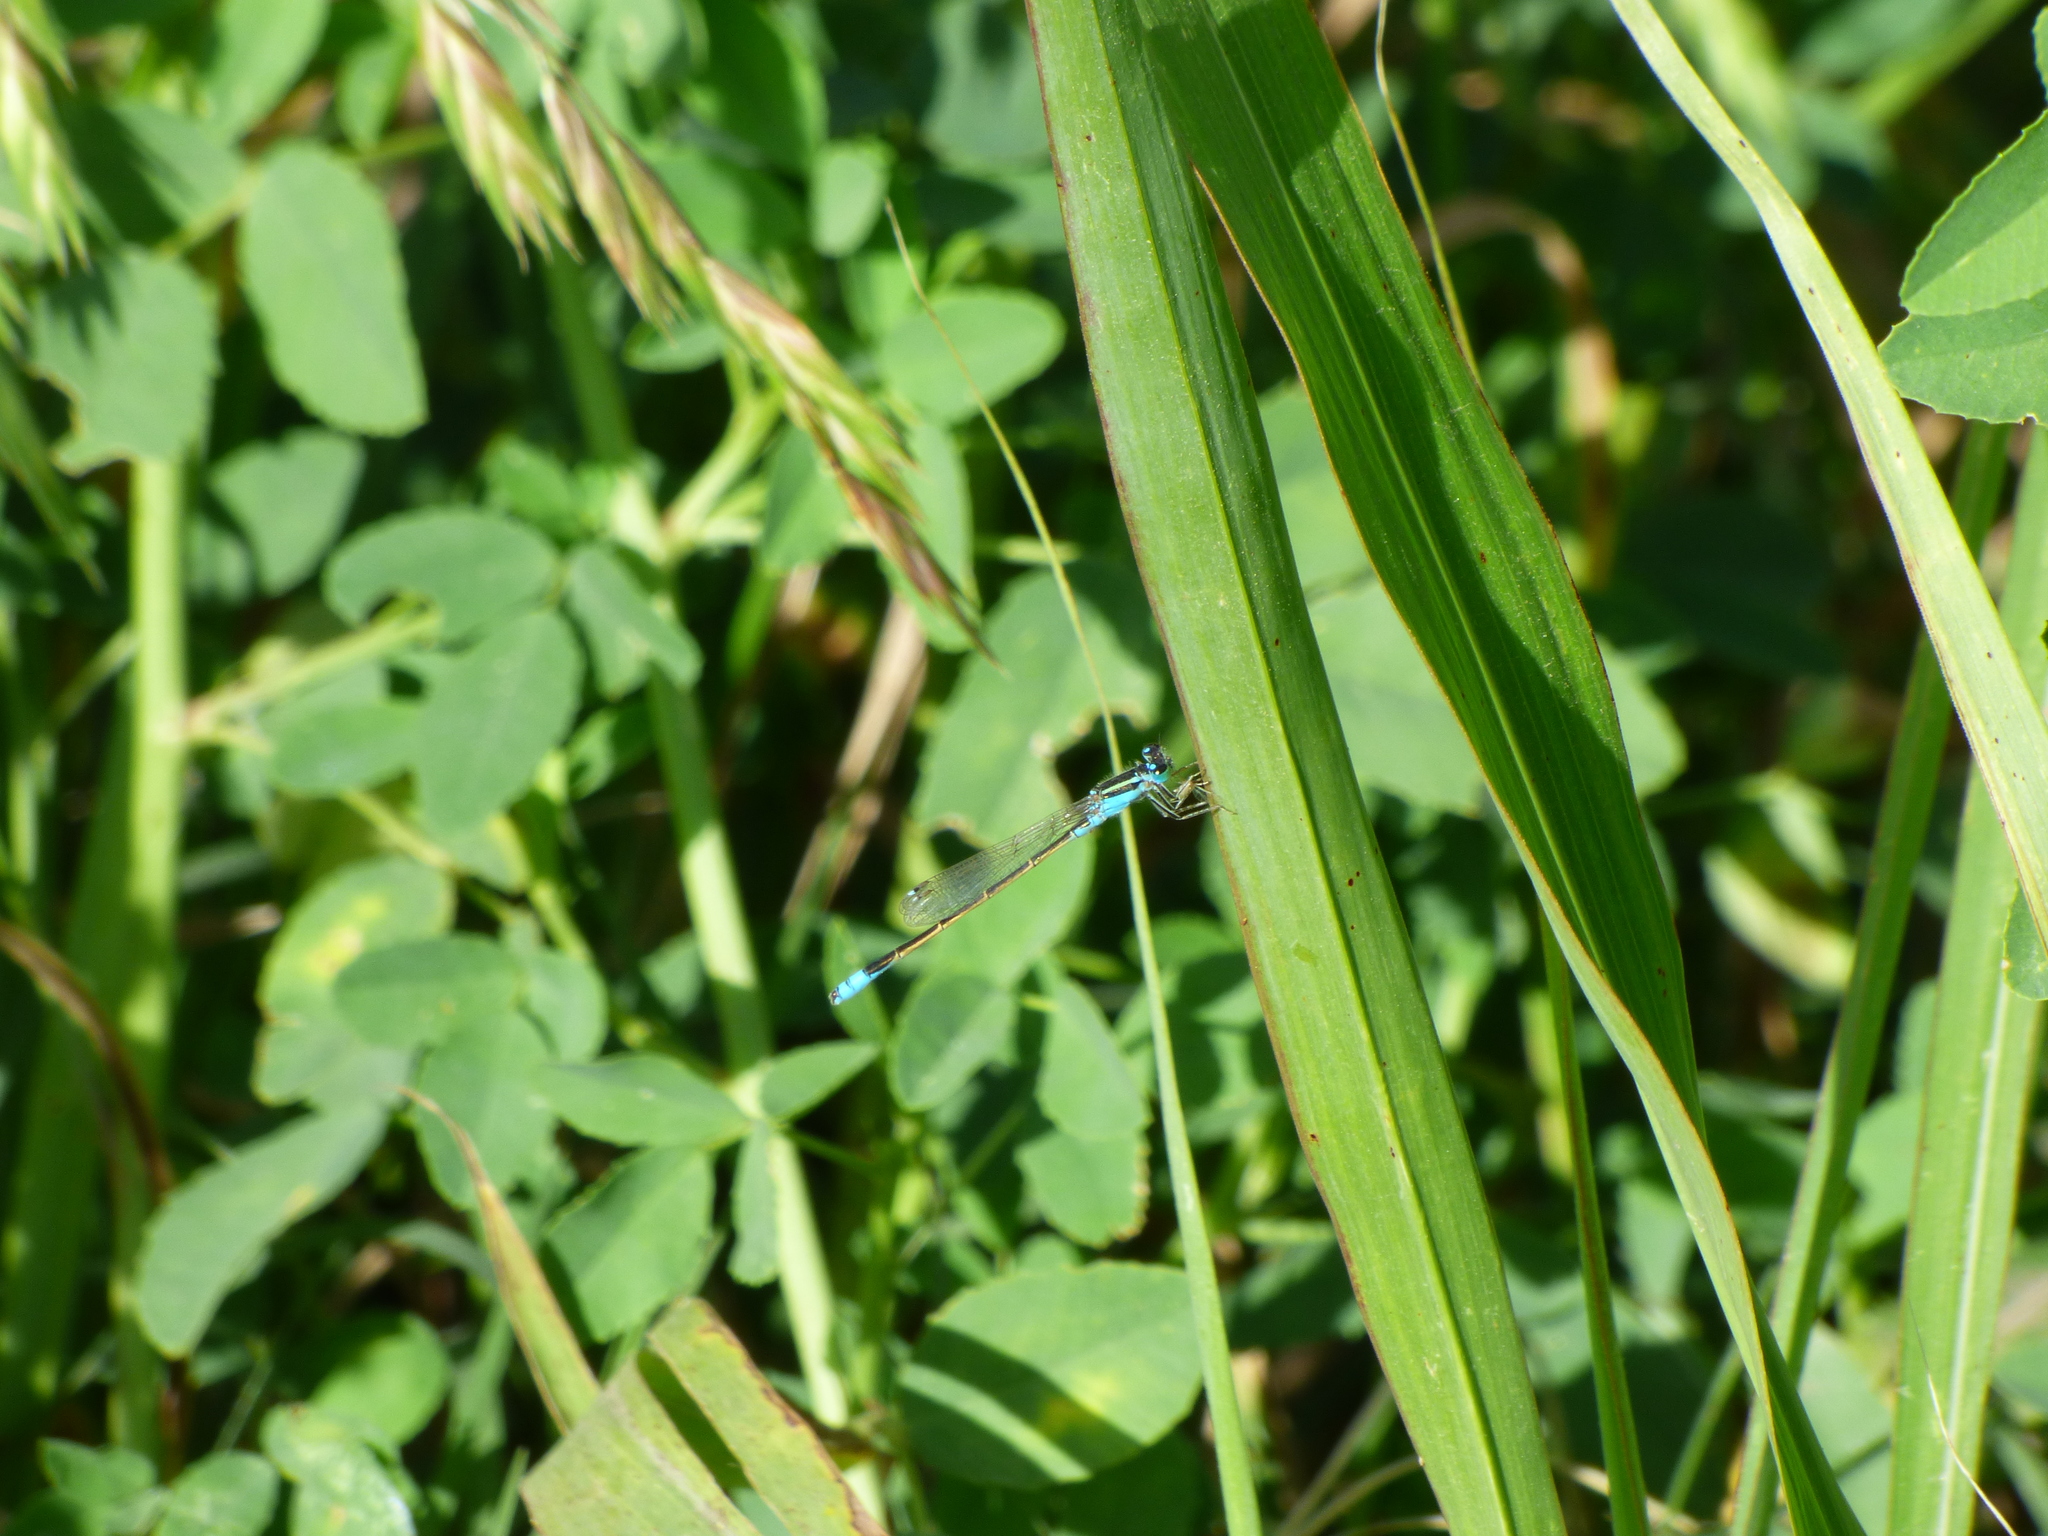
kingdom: Animalia
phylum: Arthropoda
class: Insecta
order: Odonata
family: Coenagrionidae
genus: Ischnura
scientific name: Ischnura fluviatilis
